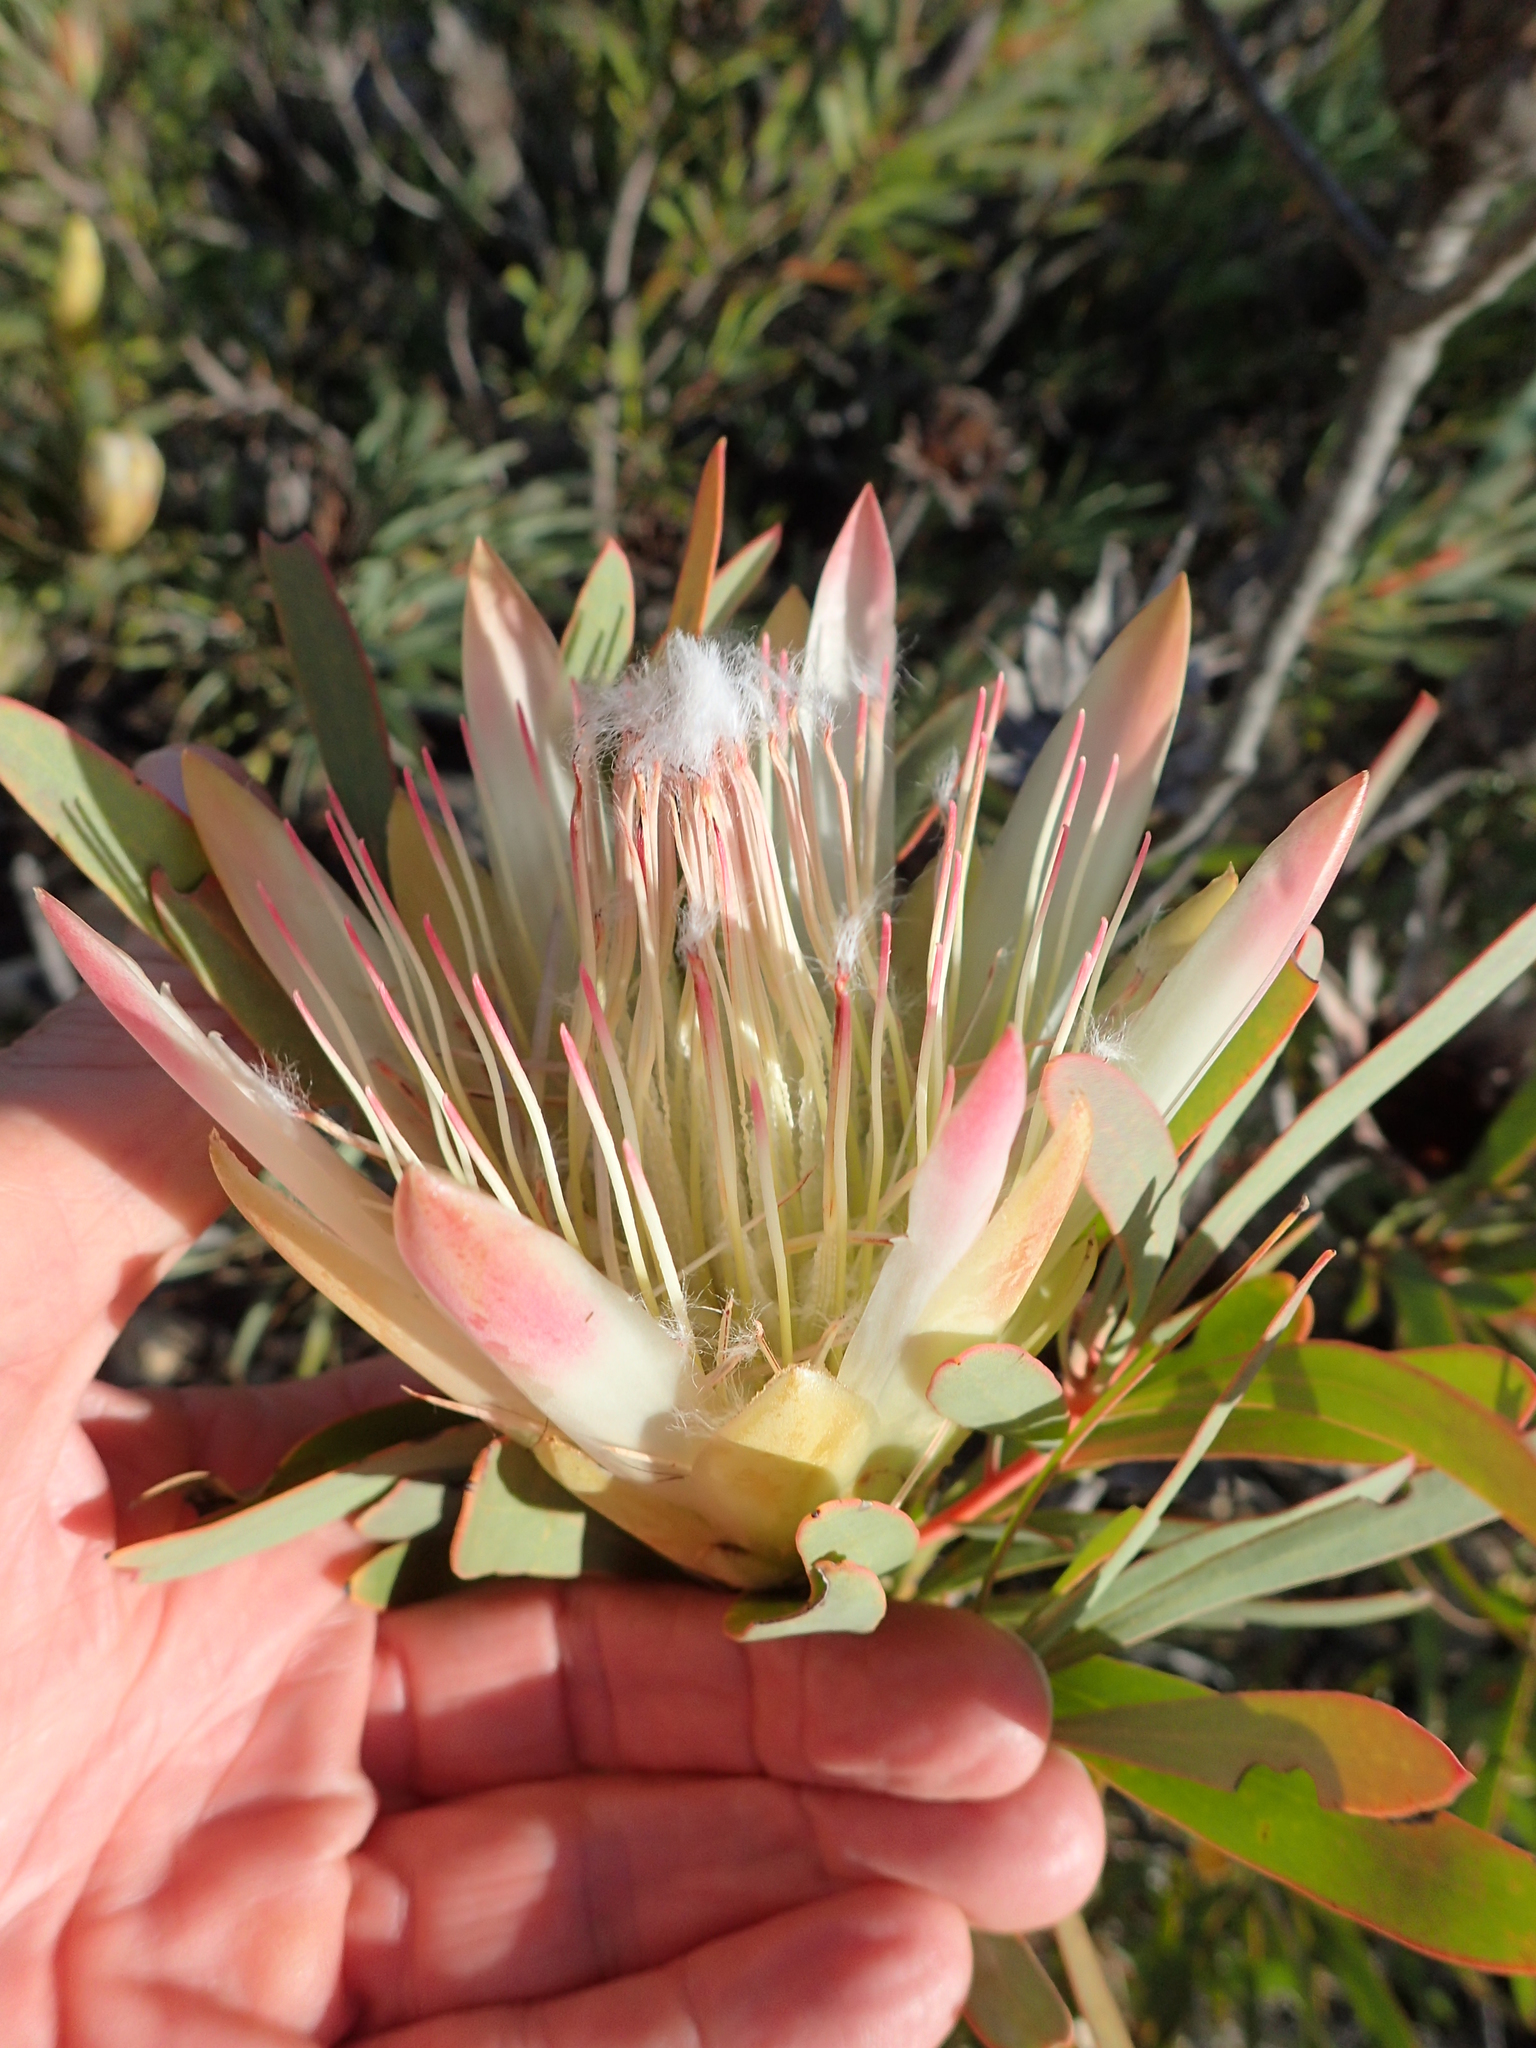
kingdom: Plantae
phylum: Tracheophyta
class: Magnoliopsida
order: Proteales
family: Proteaceae
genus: Protea
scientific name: Protea repens
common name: Sugarbush
